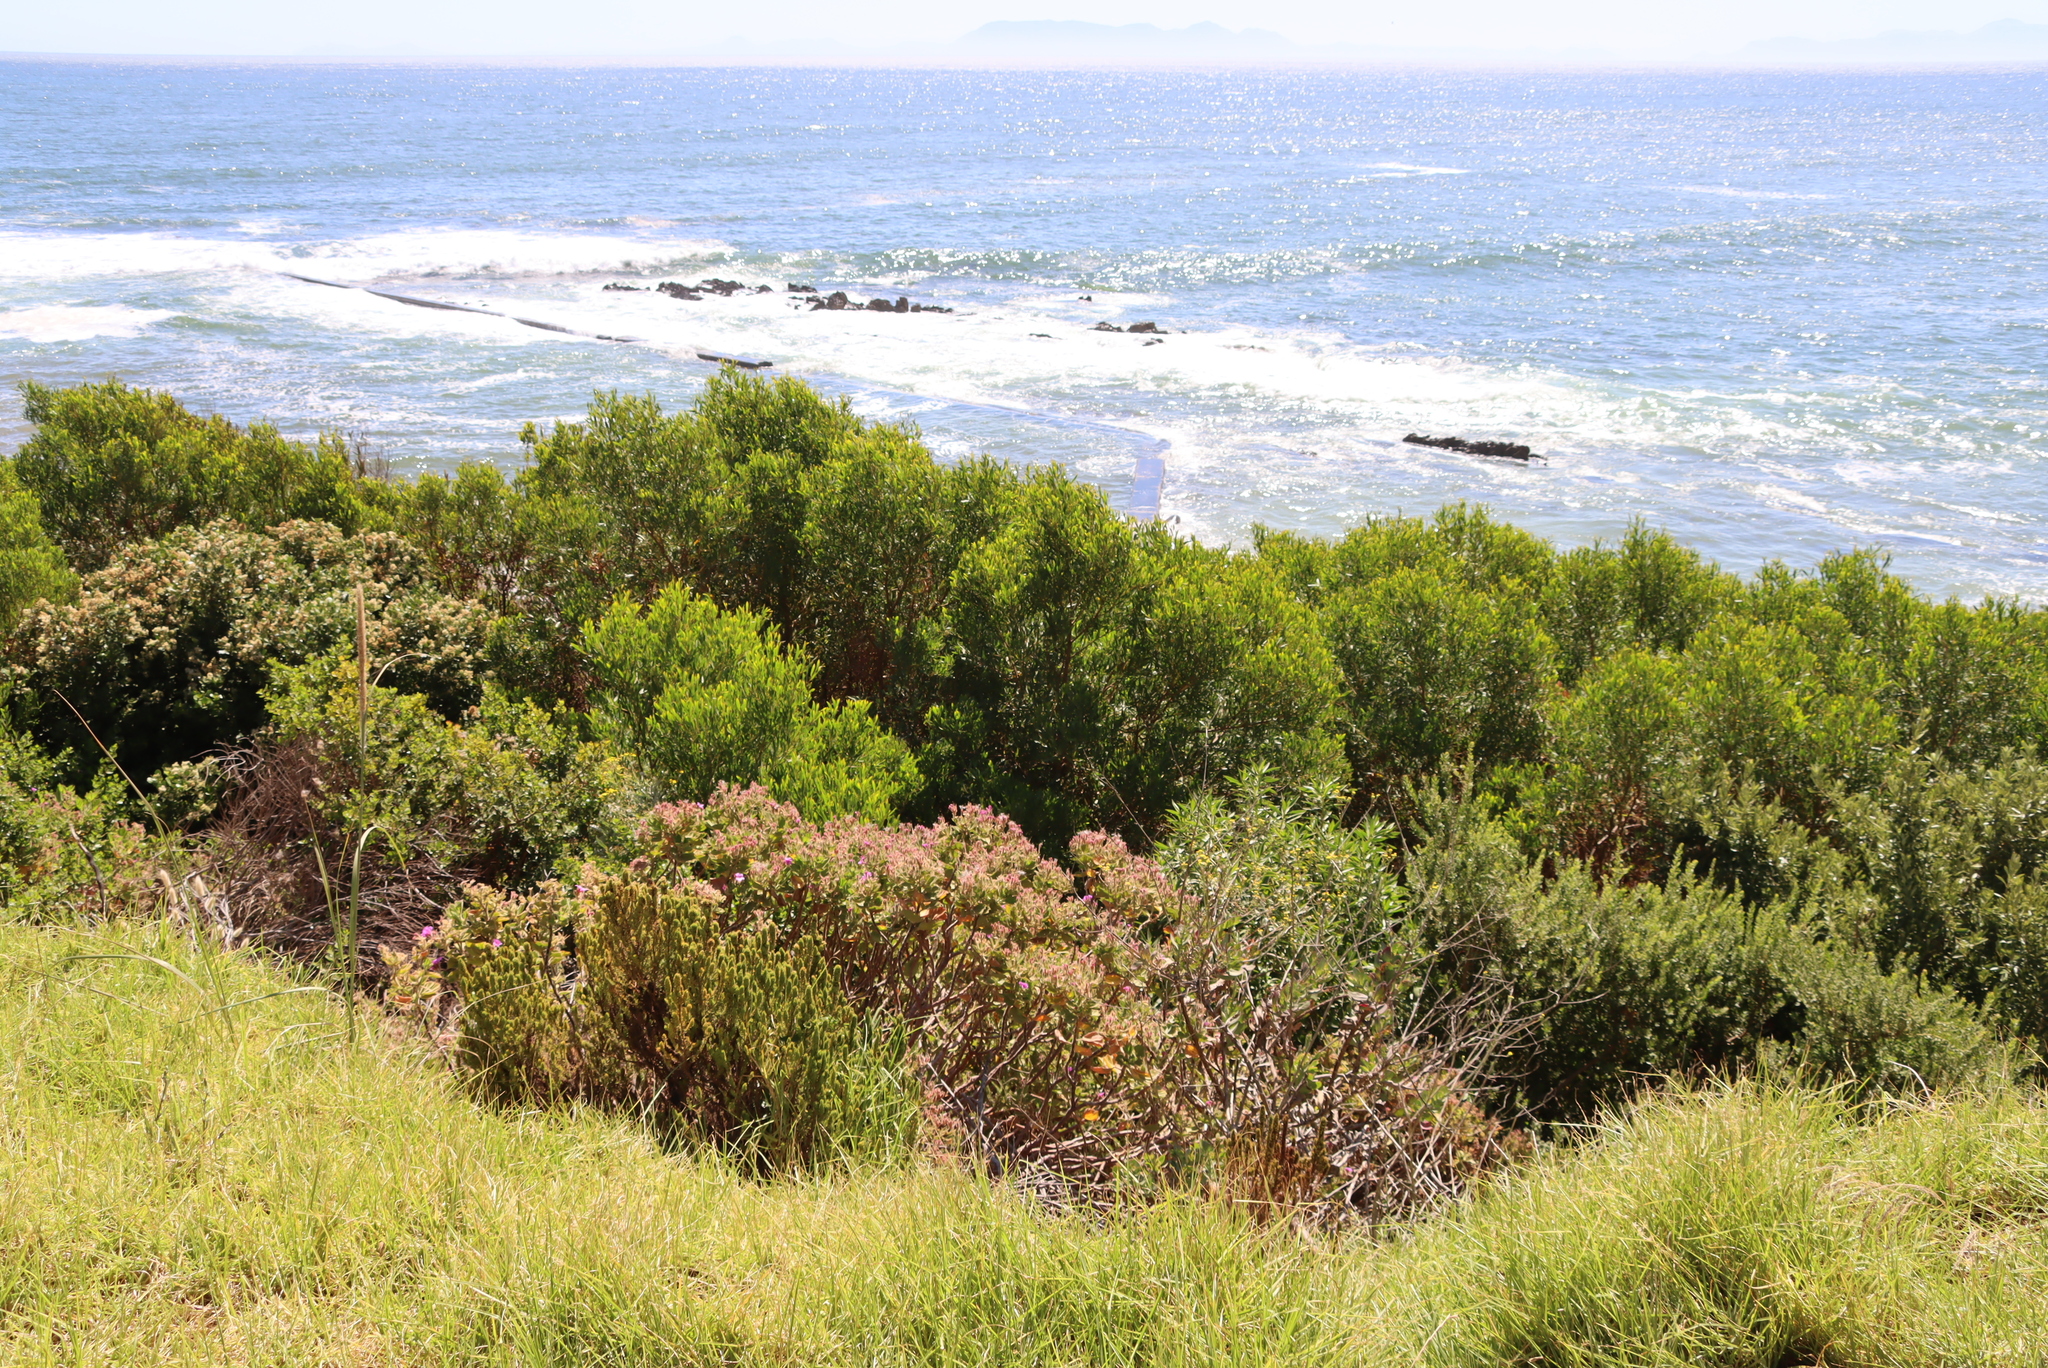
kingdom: Plantae
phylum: Tracheophyta
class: Magnoliopsida
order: Fabales
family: Fabaceae
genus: Acacia
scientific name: Acacia cyclops
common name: Coastal wattle
